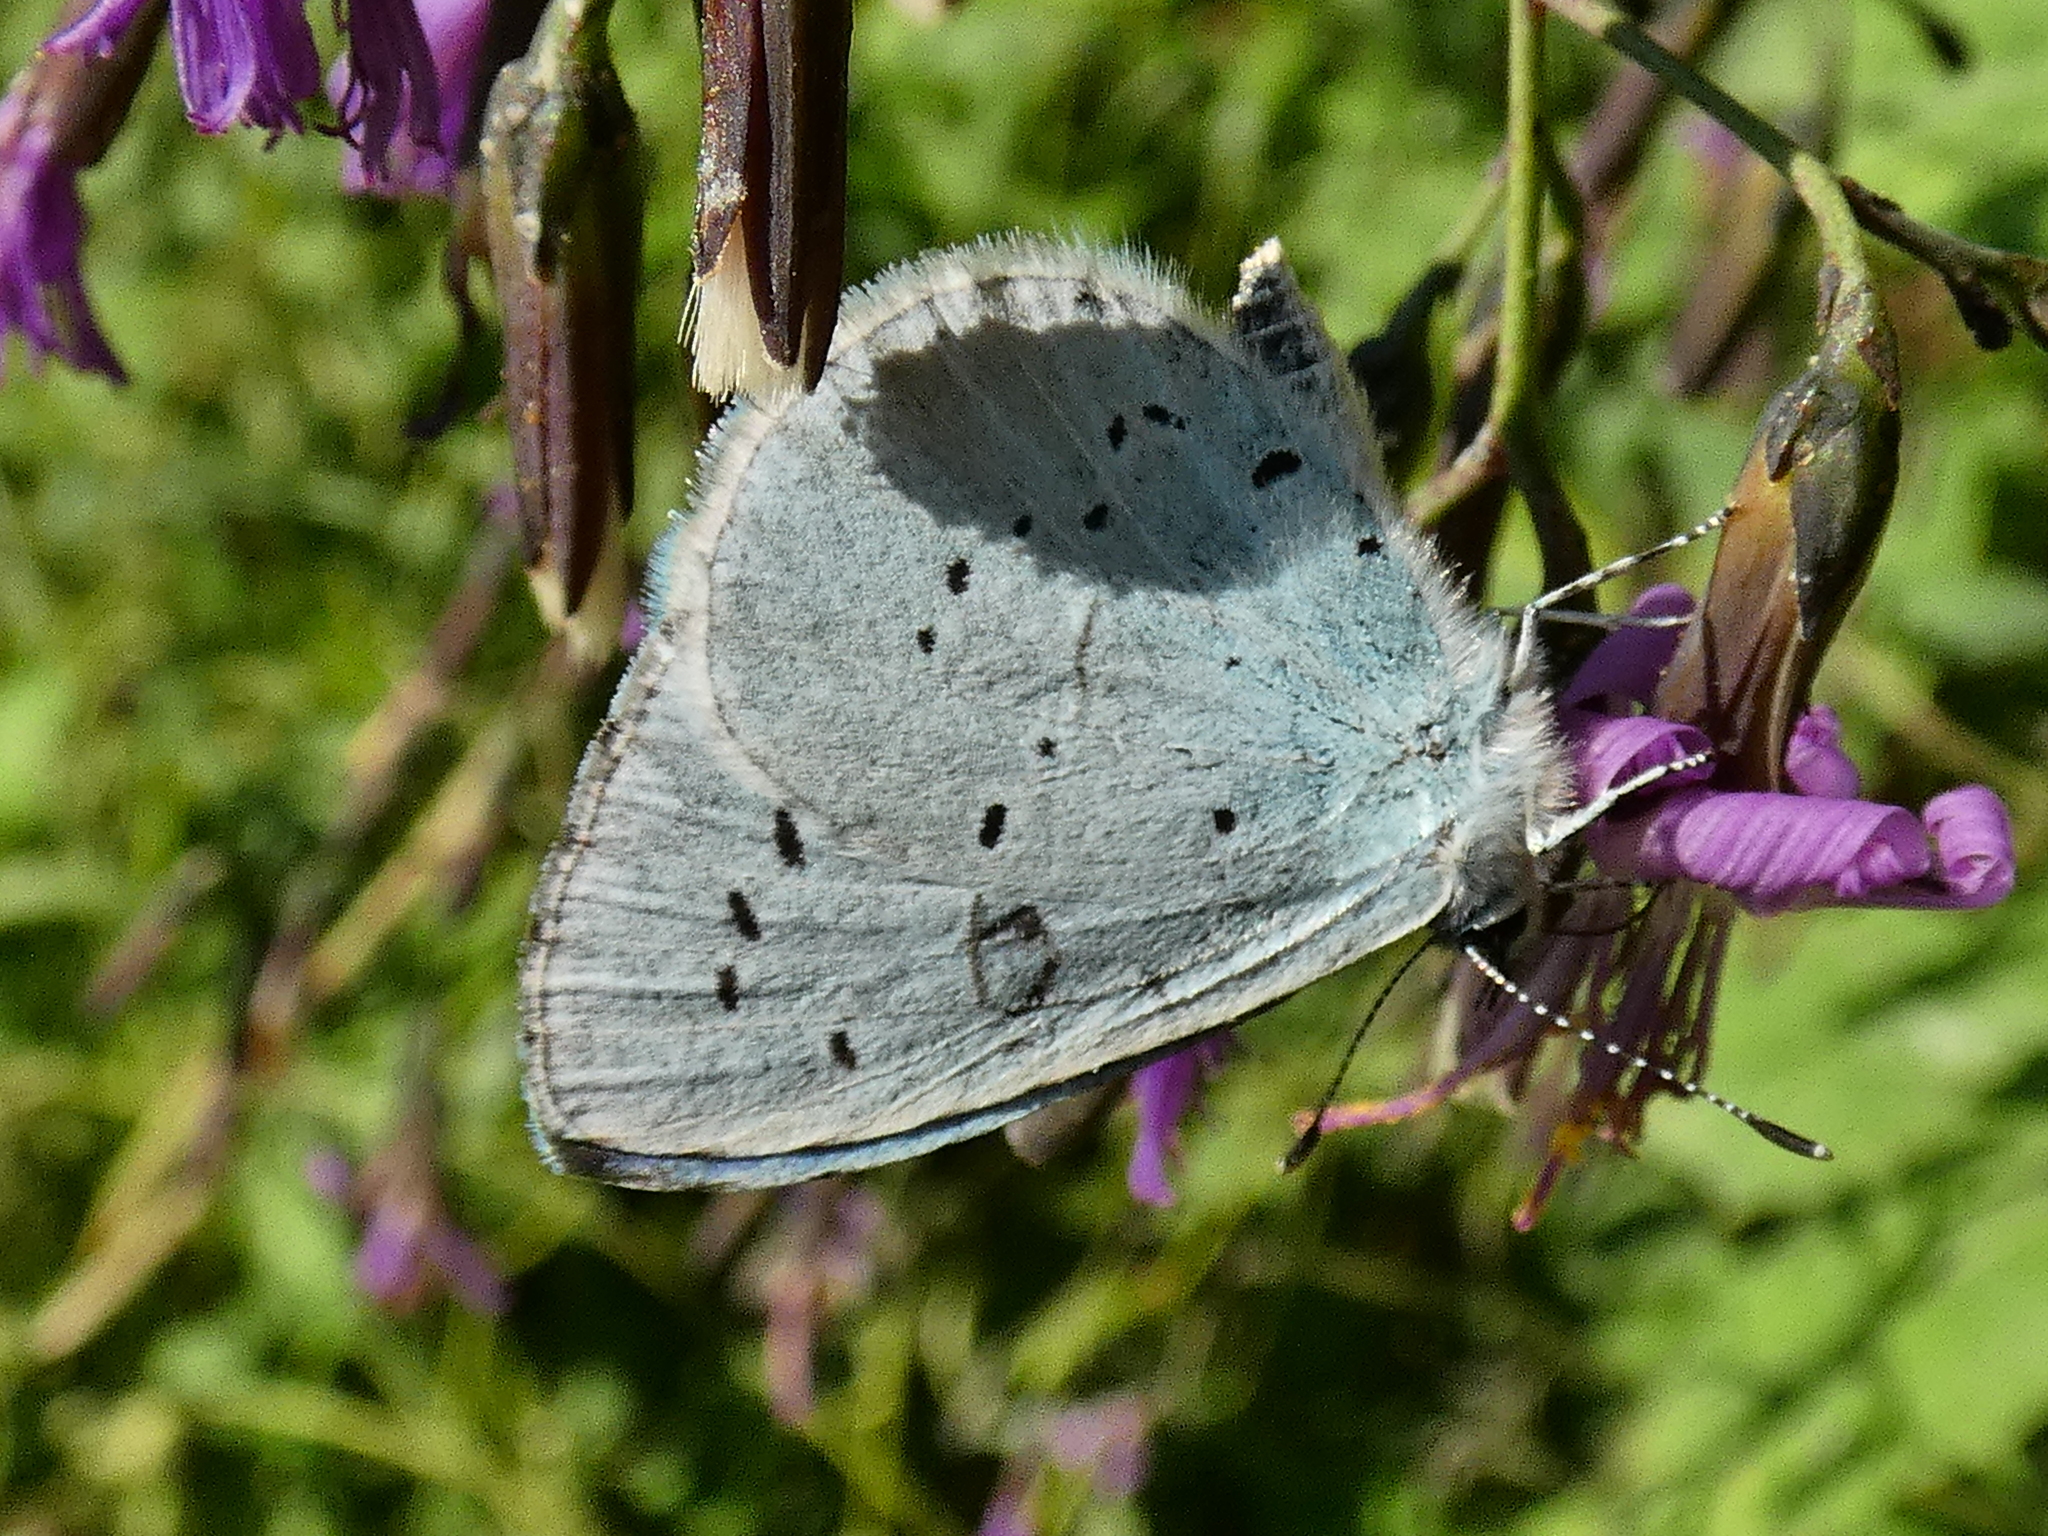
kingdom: Animalia
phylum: Arthropoda
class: Insecta
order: Lepidoptera
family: Lycaenidae
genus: Celastrina
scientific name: Celastrina argiolus
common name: Holly blue
